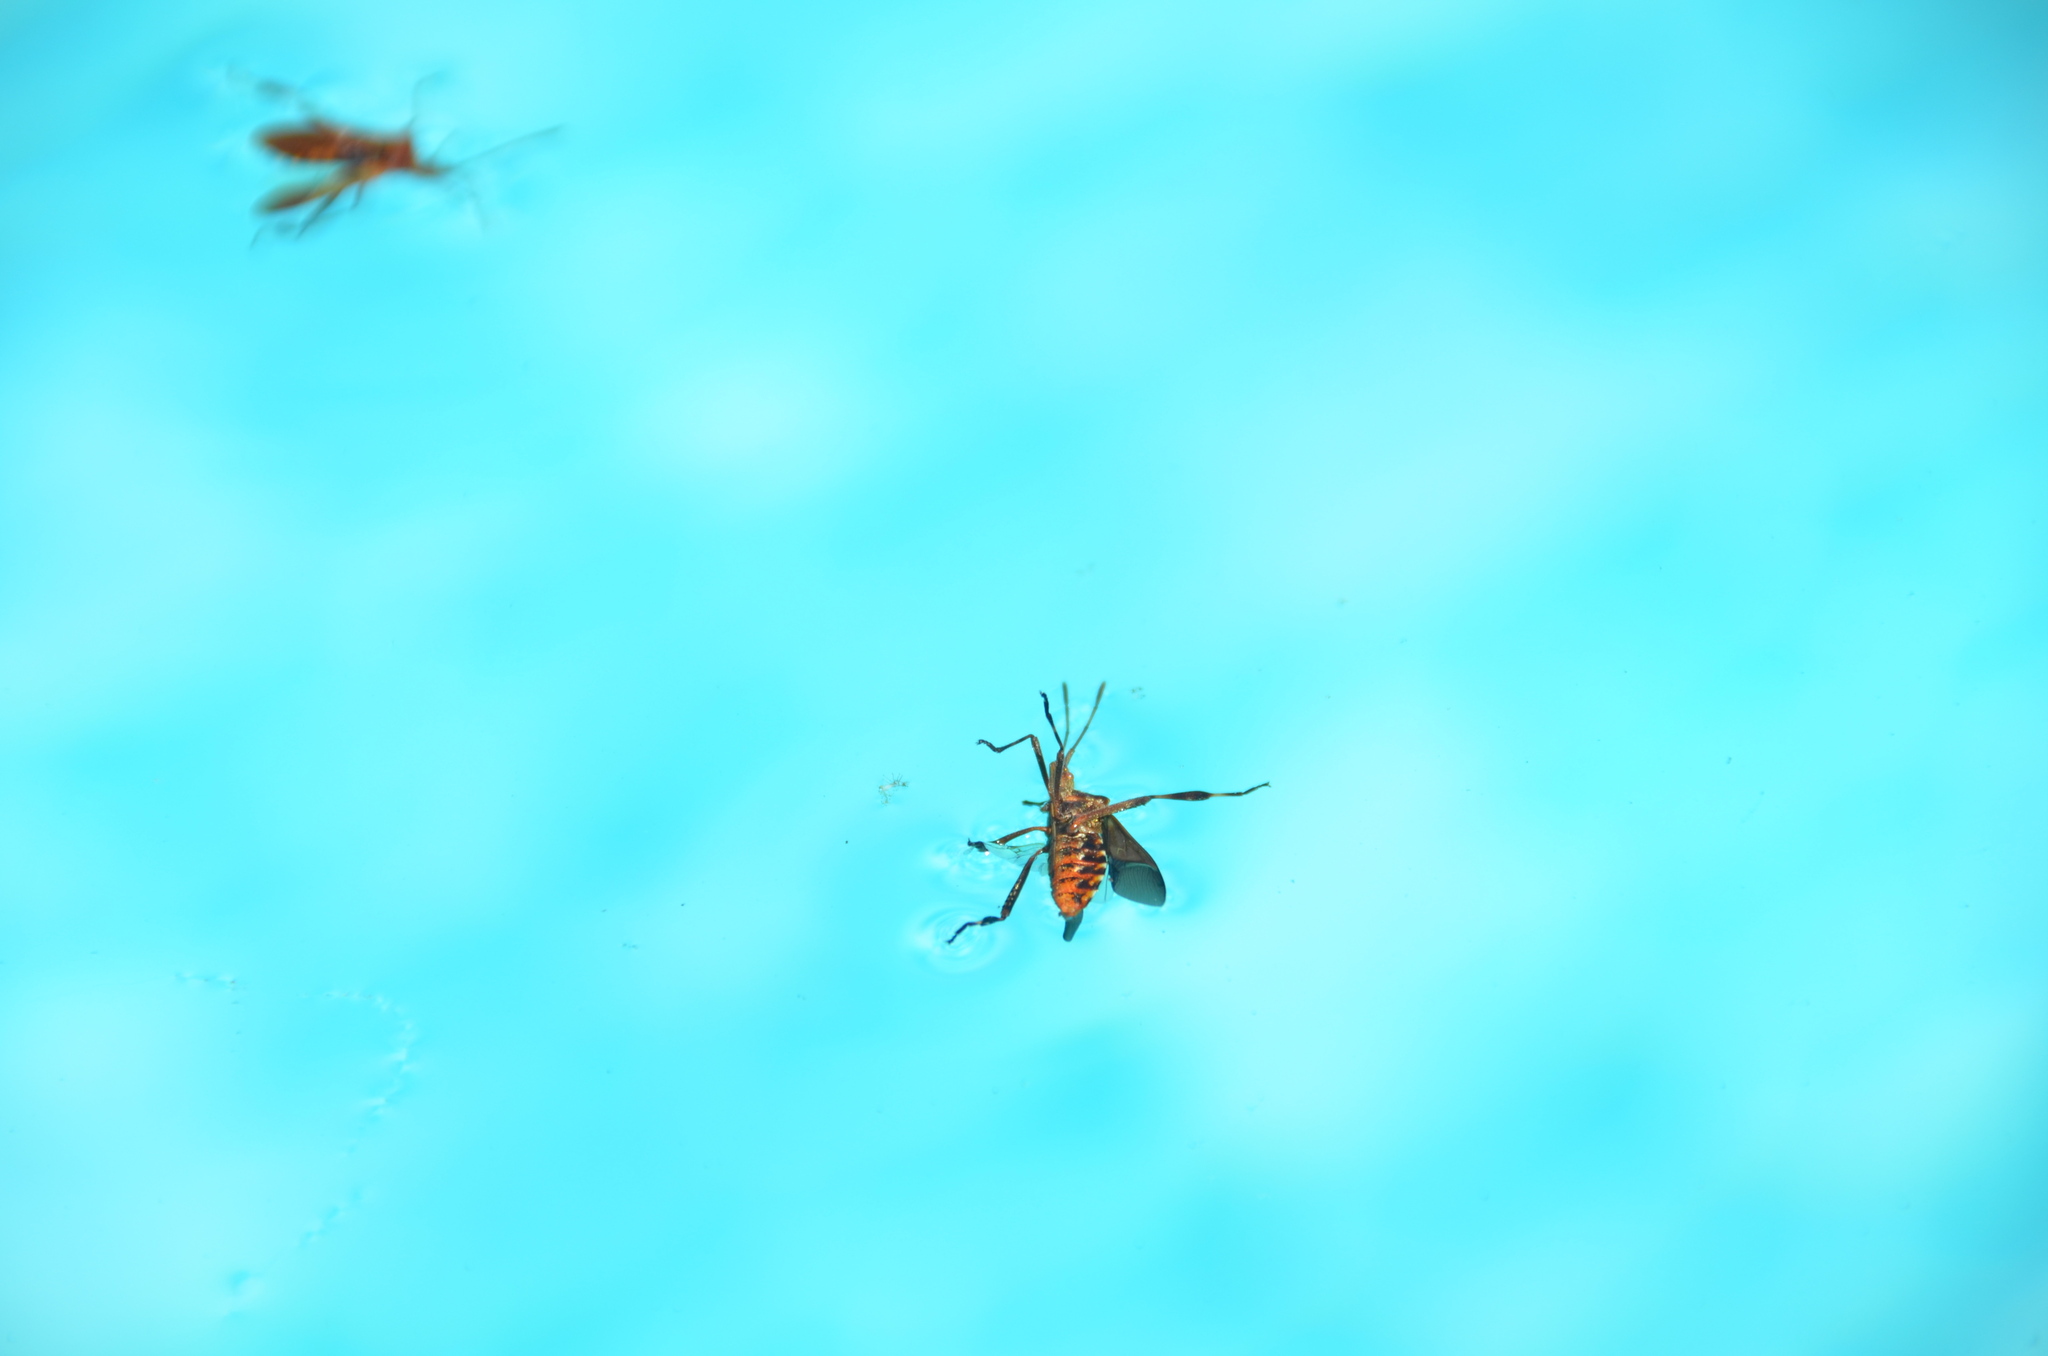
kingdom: Animalia
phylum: Arthropoda
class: Insecta
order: Hemiptera
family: Coreidae
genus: Leptoglossus
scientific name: Leptoglossus occidentalis
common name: Western conifer-seed bug
